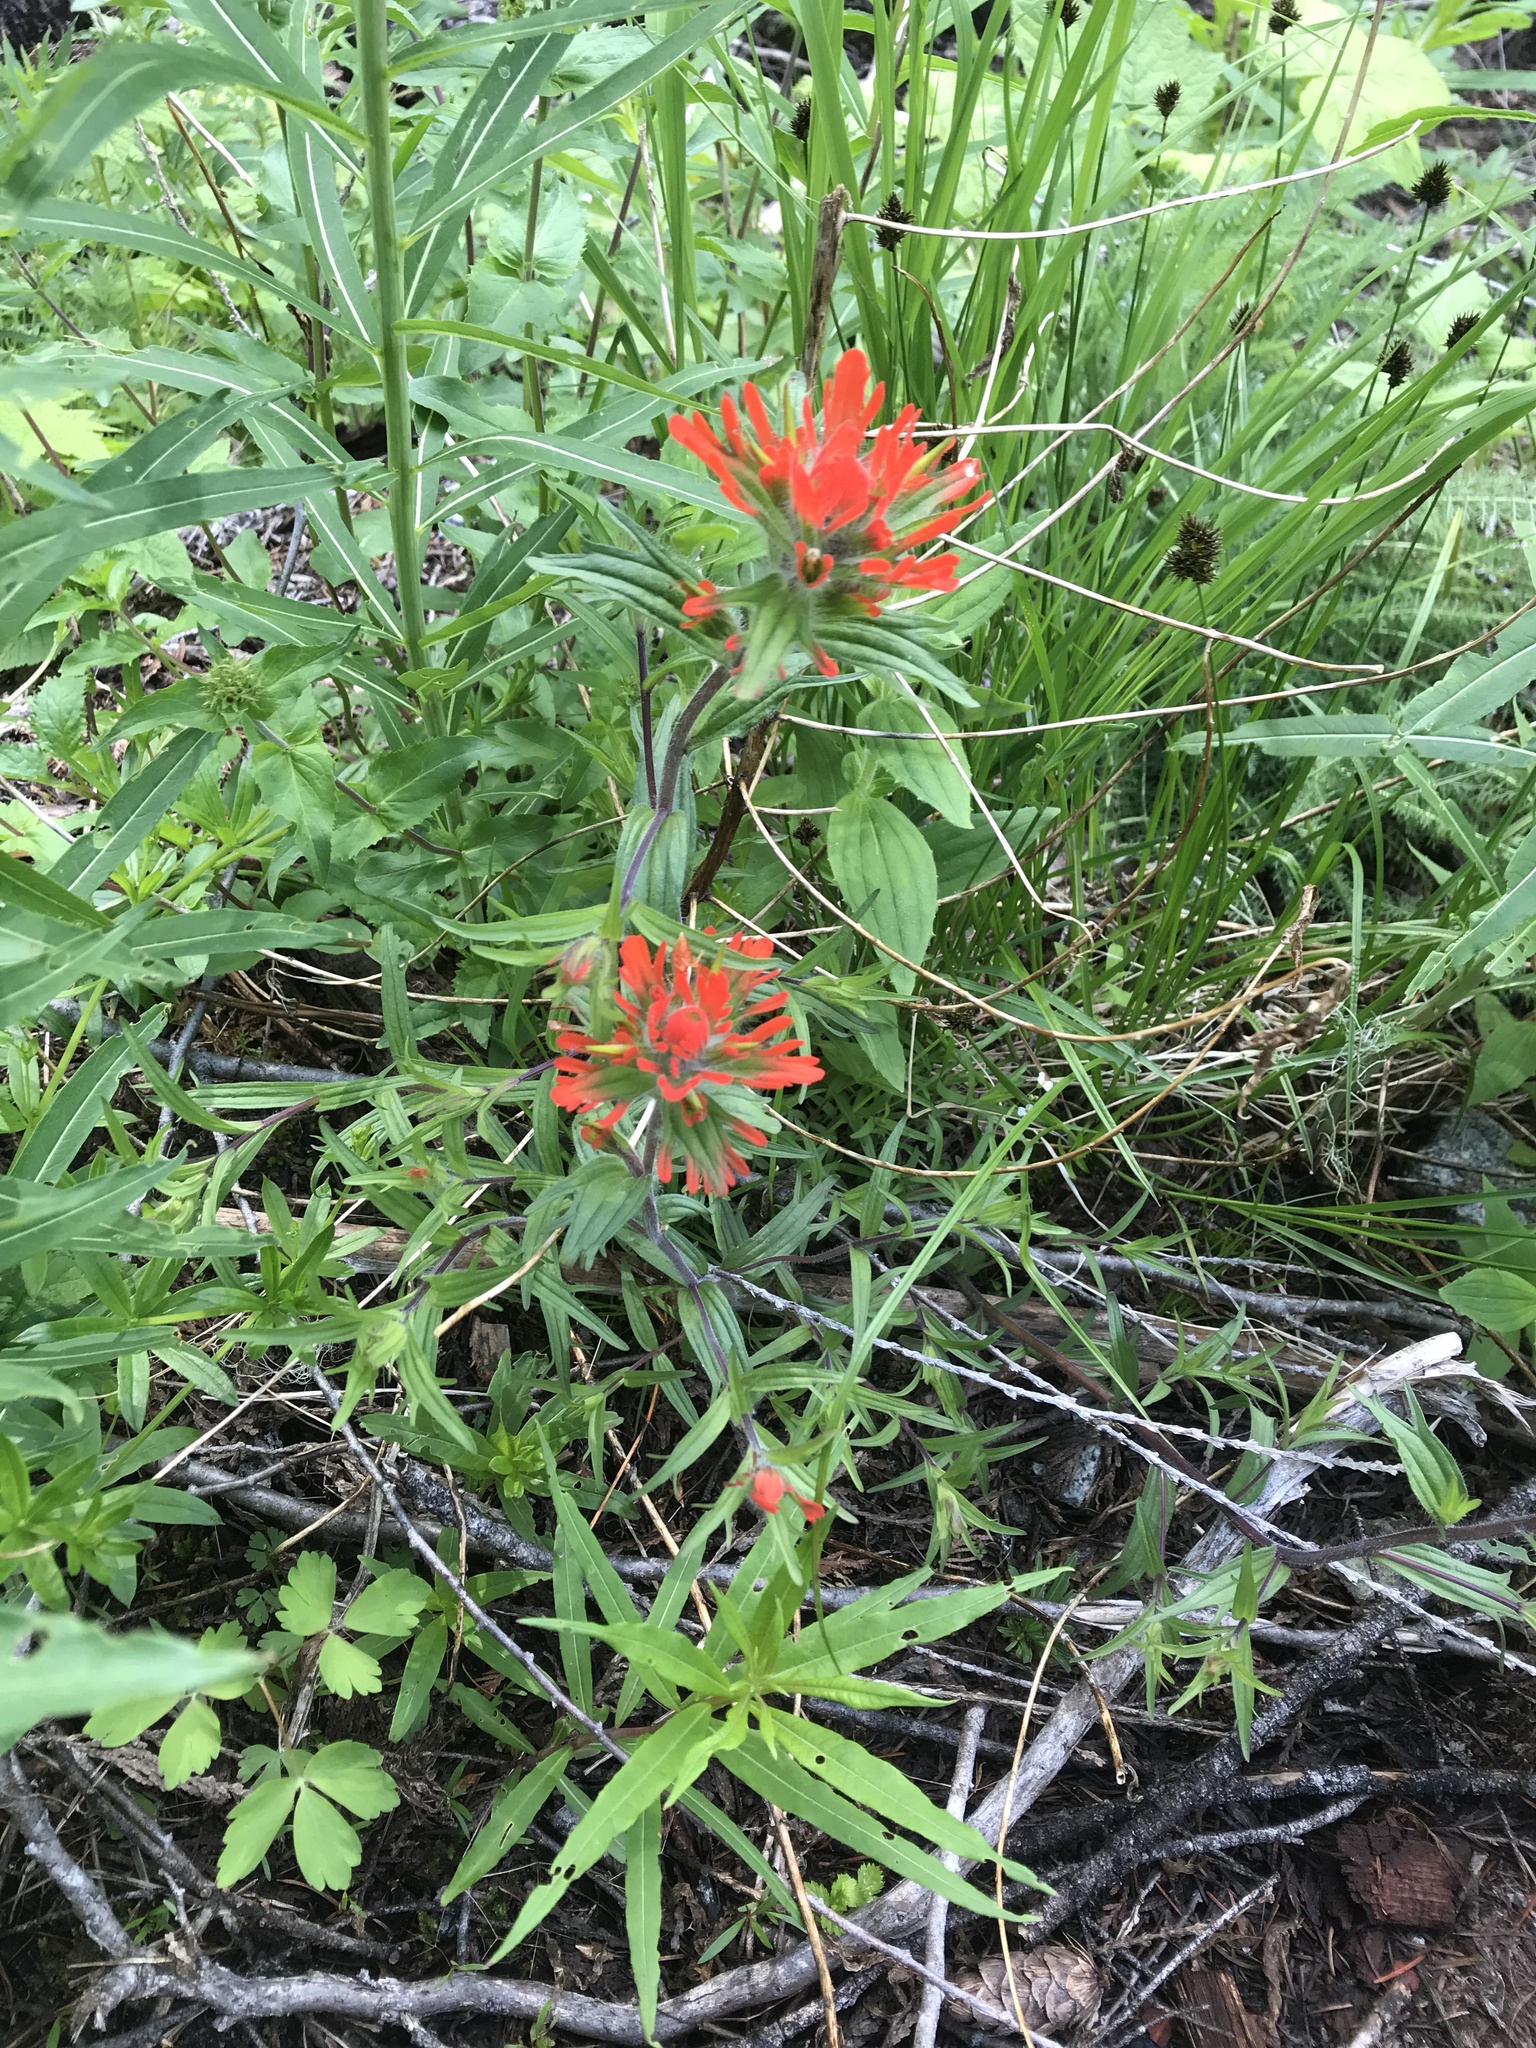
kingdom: Plantae
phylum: Tracheophyta
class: Magnoliopsida
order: Lamiales
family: Orobanchaceae
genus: Castilleja
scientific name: Castilleja miniata
